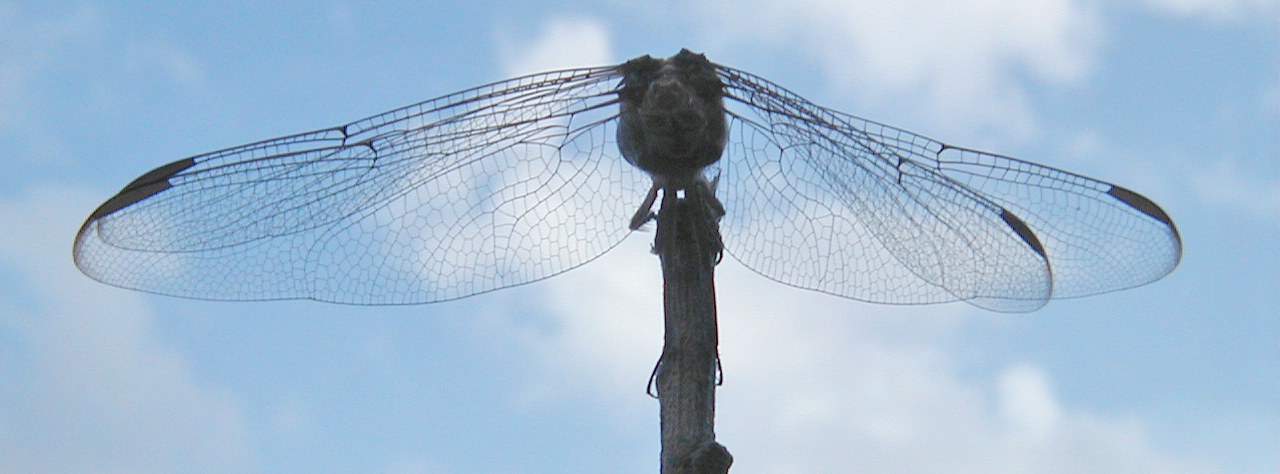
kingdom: Animalia
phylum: Arthropoda
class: Insecta
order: Odonata
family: Libellulidae
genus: Orthemis
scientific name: Orthemis ferruginea
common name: Roseate skimmer
